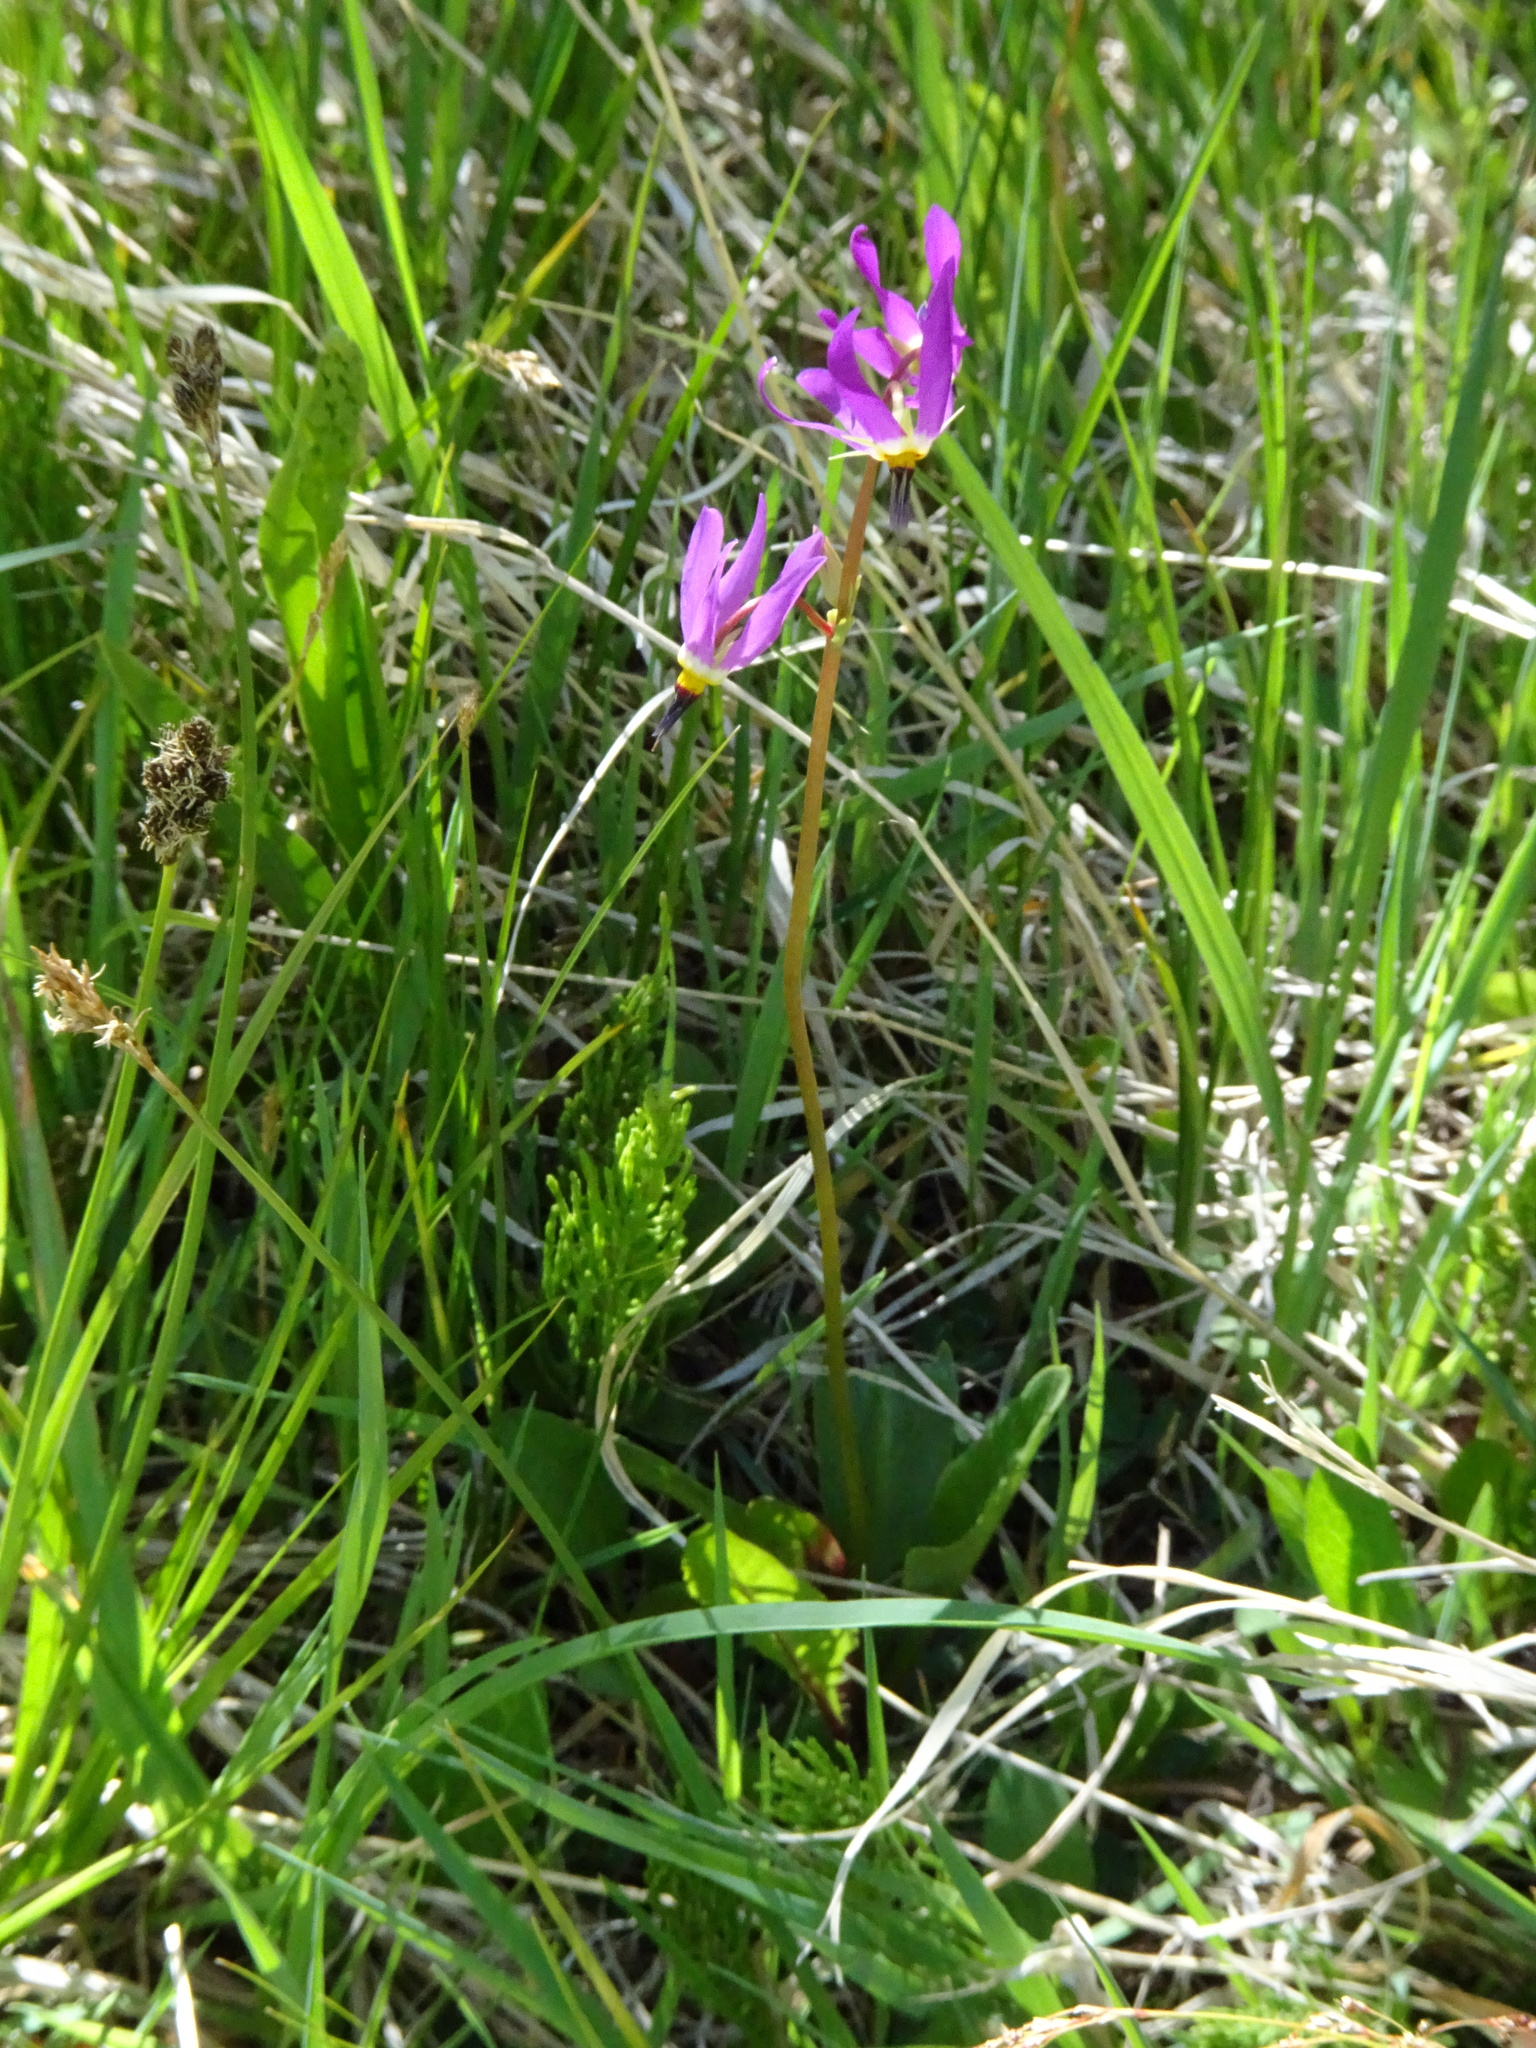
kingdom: Plantae
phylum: Tracheophyta
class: Magnoliopsida
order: Ericales
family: Primulaceae
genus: Dodecatheon
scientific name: Dodecatheon pulchellum
